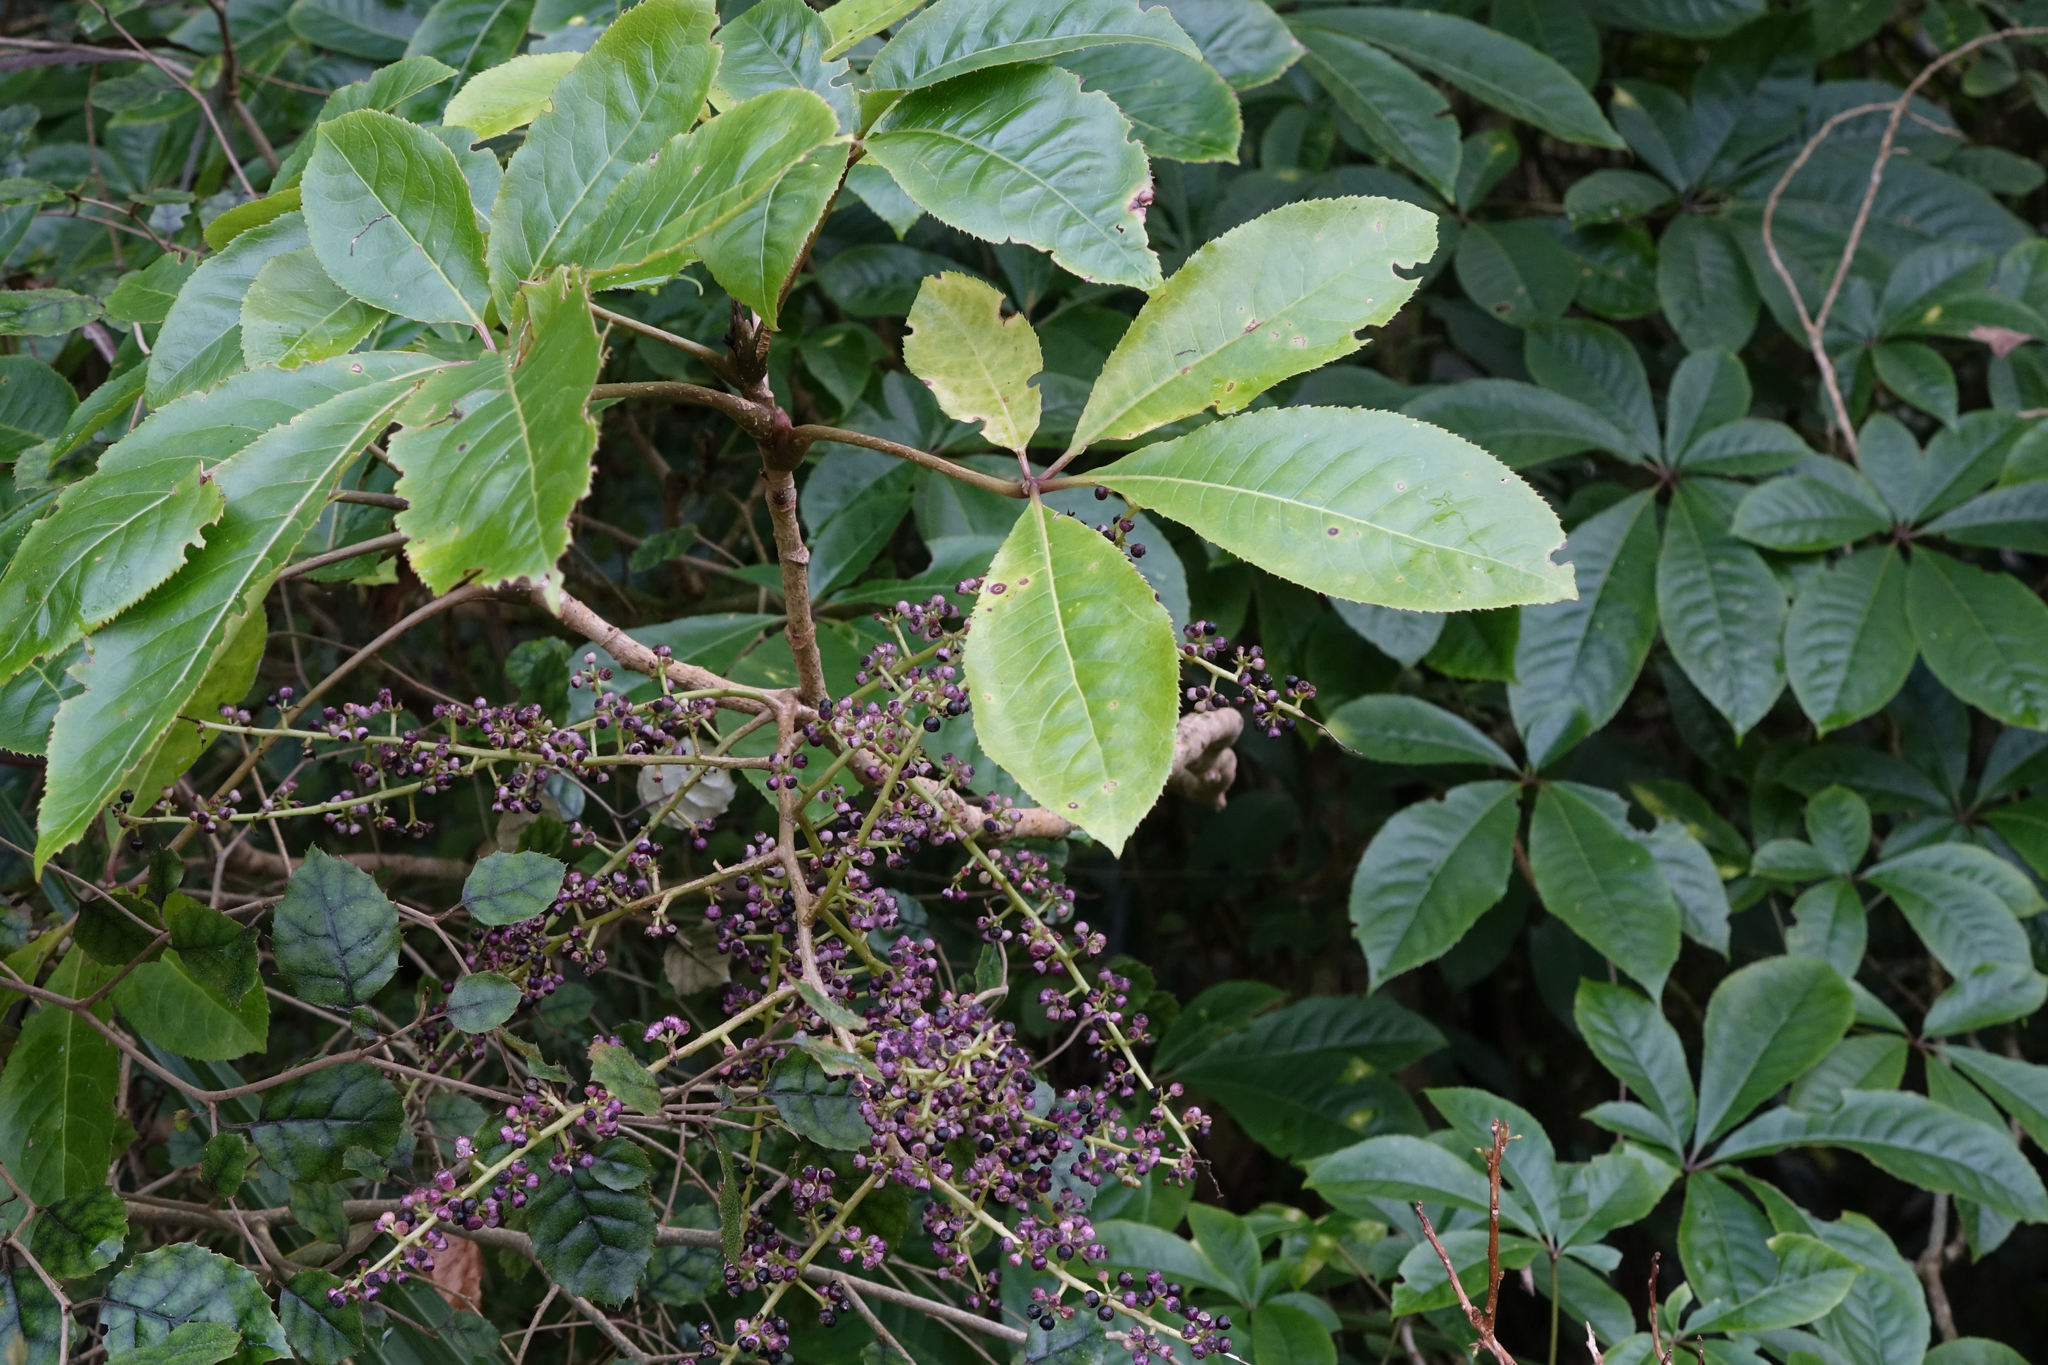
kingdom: Plantae
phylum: Tracheophyta
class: Magnoliopsida
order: Apiales
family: Araliaceae
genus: Schefflera
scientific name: Schefflera digitata
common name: Pate
